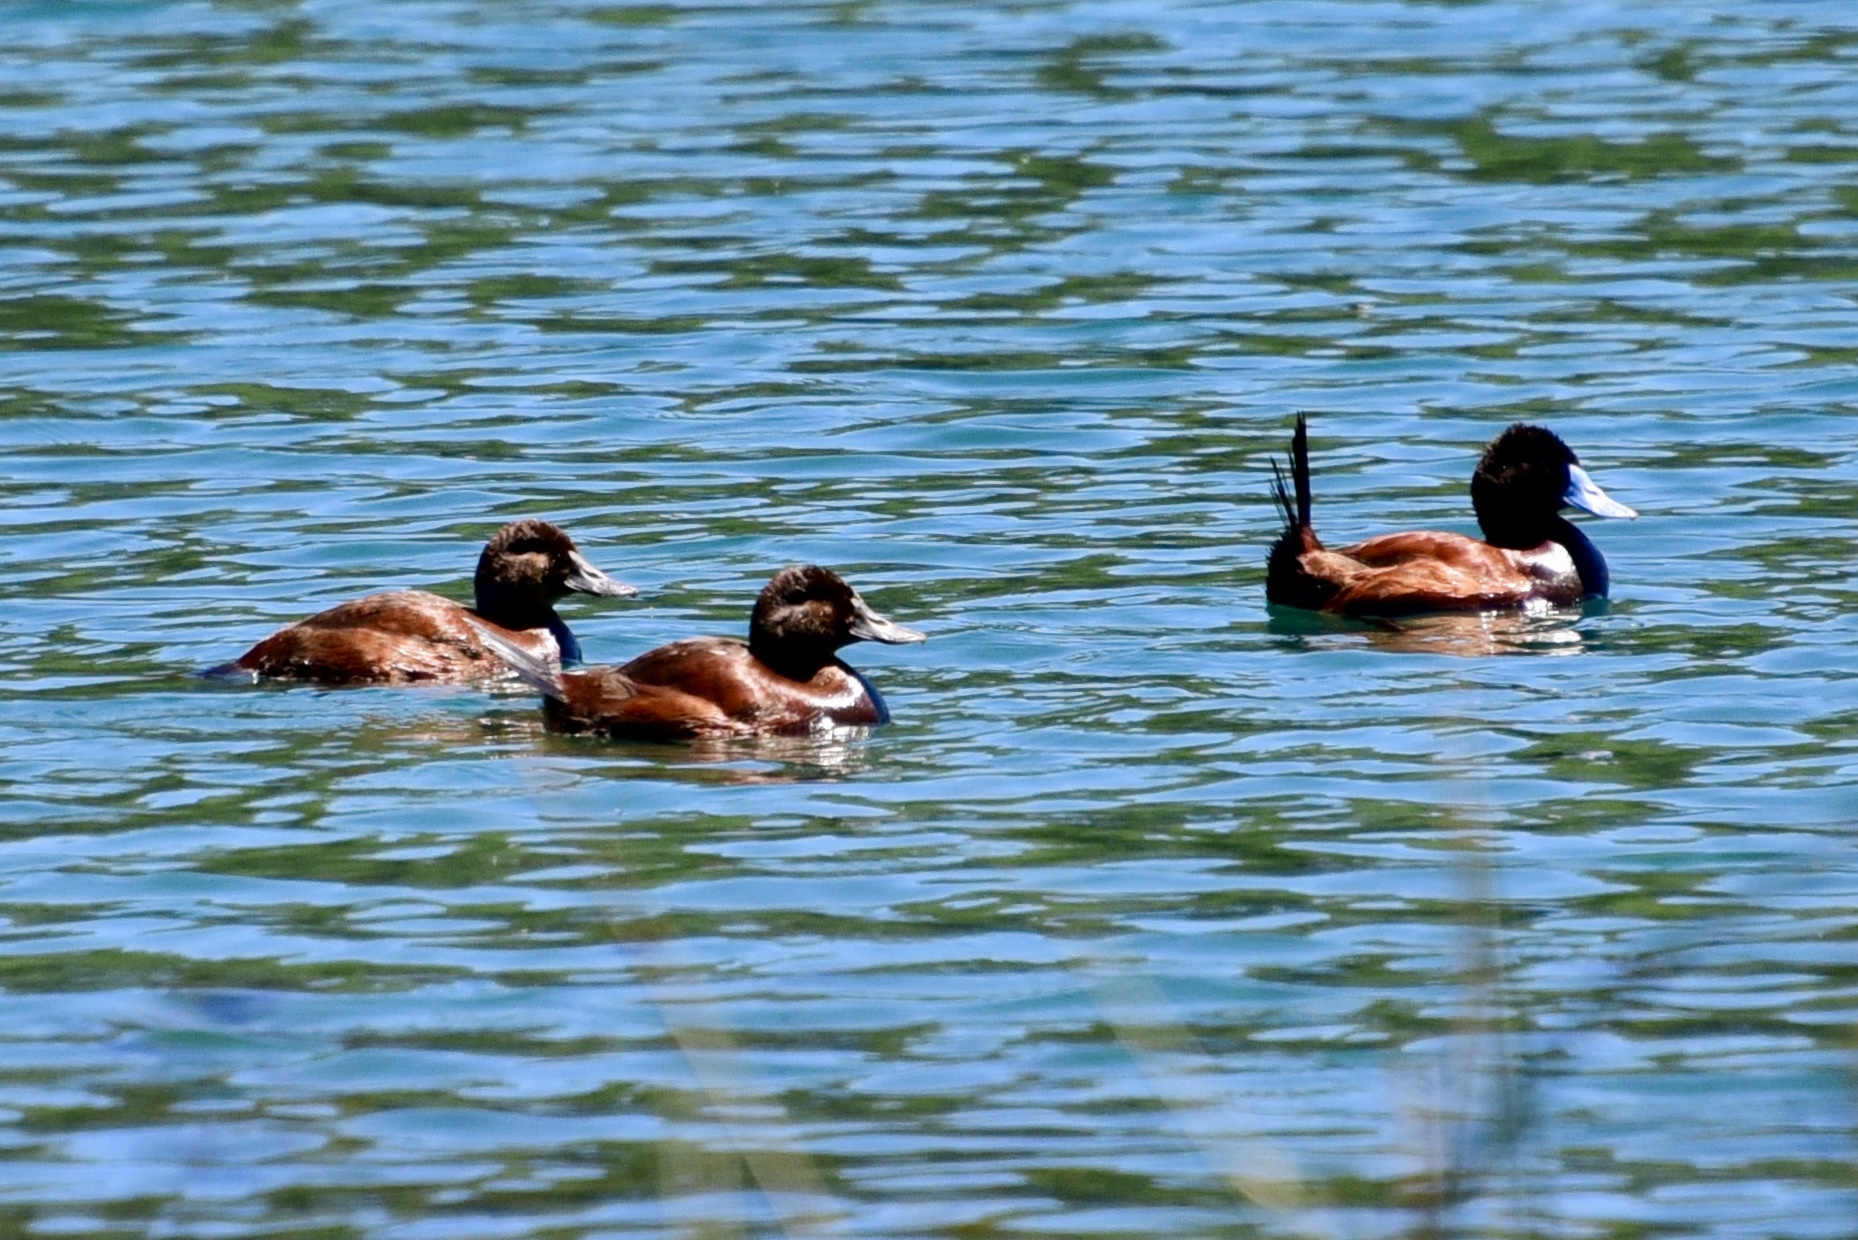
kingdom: Animalia
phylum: Chordata
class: Aves
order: Anseriformes
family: Anatidae
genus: Oxyura
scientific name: Oxyura vittata
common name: Lake duck
